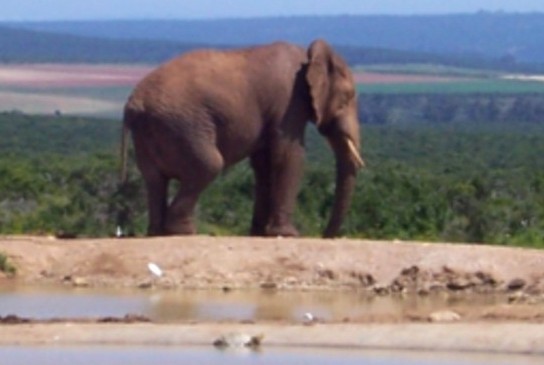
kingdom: Animalia
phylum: Chordata
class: Mammalia
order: Proboscidea
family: Elephantidae
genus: Loxodonta
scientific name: Loxodonta africana
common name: African elephant
